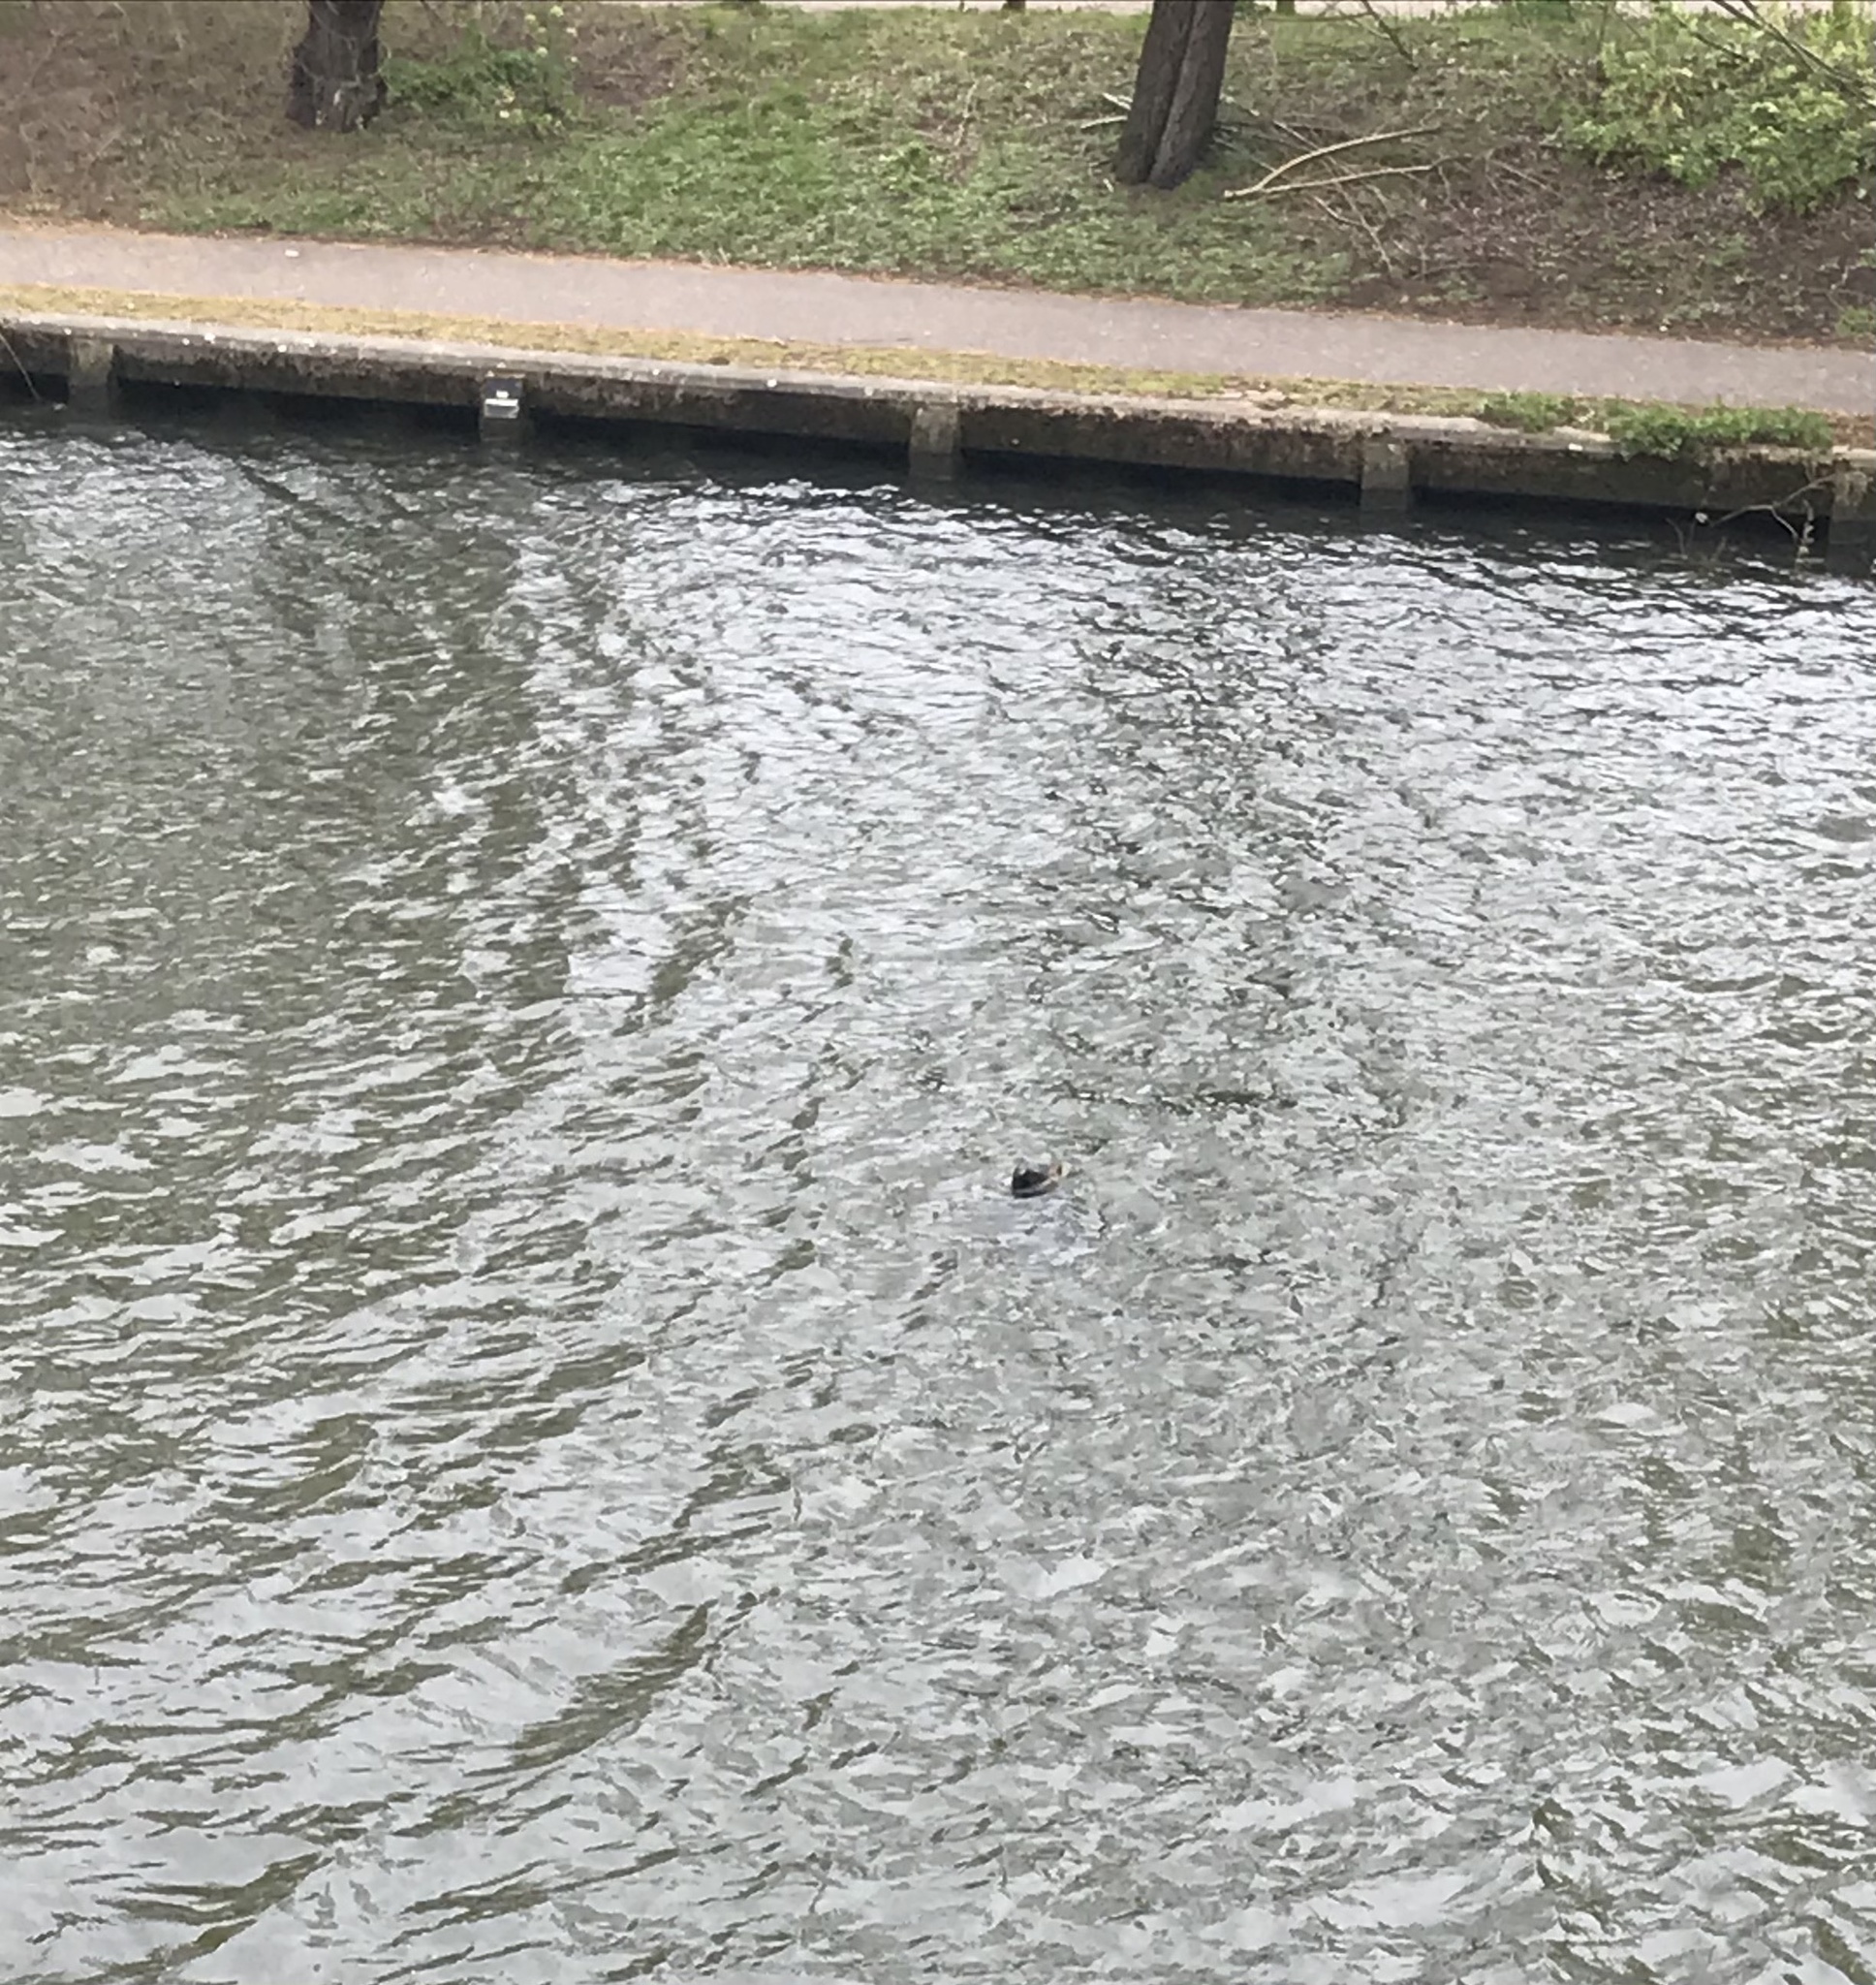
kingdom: Animalia
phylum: Chordata
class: Mammalia
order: Carnivora
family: Phocidae
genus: Phoca
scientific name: Phoca vitulina
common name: Harbor seal
